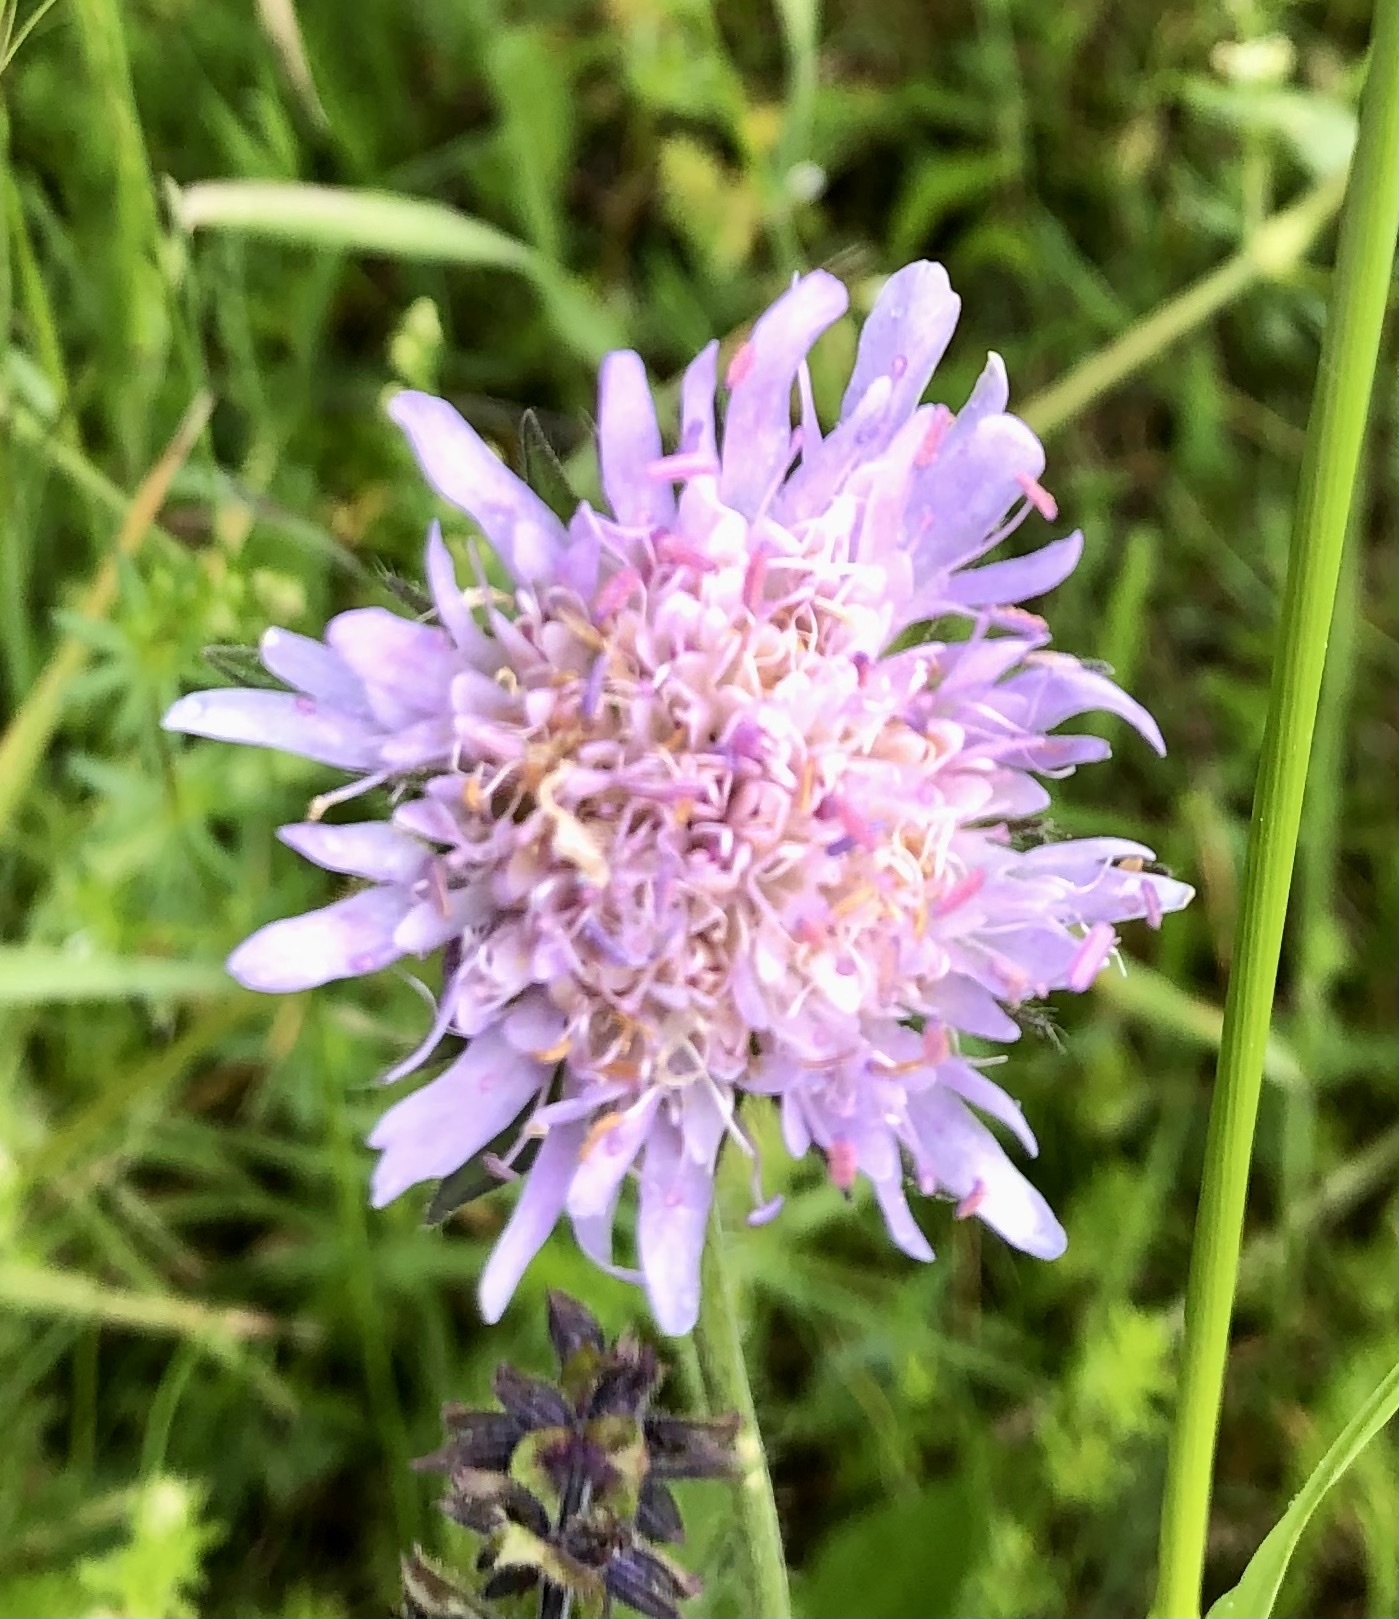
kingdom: Plantae
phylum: Tracheophyta
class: Magnoliopsida
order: Dipsacales
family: Caprifoliaceae
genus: Knautia
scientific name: Knautia arvensis
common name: Field scabiosa
